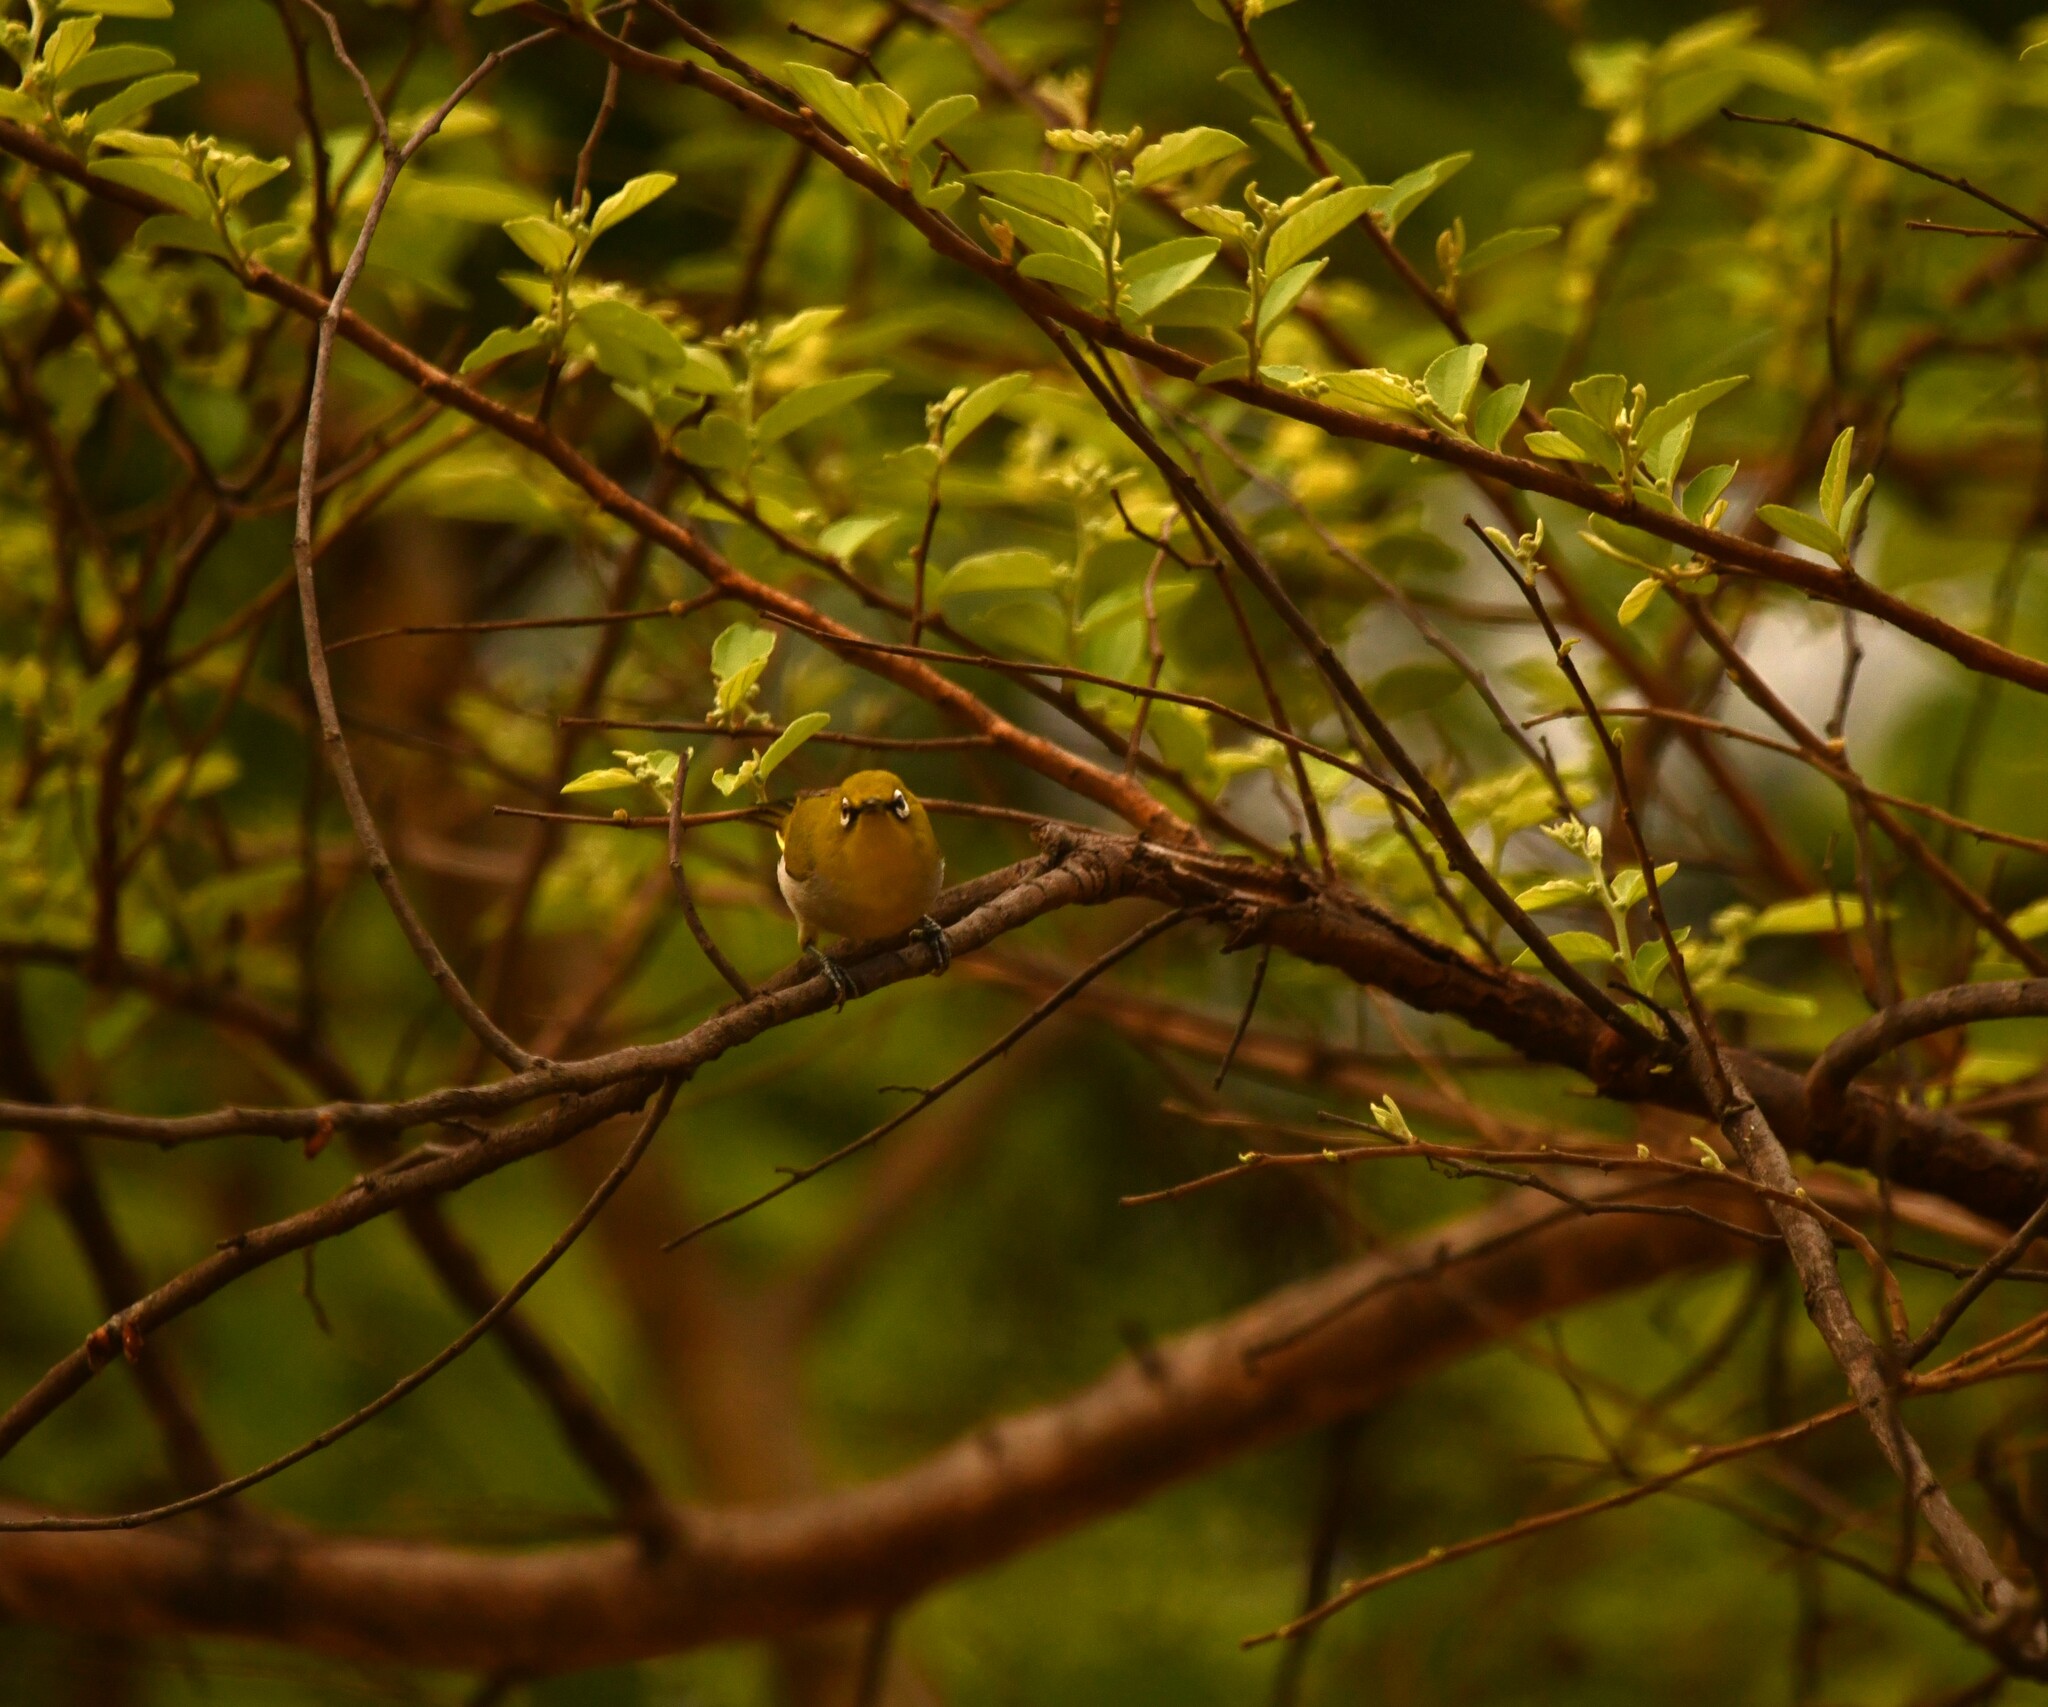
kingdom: Animalia
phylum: Chordata
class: Aves
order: Passeriformes
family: Zosteropidae
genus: Zosterops
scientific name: Zosterops palpebrosus
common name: Oriental white-eye
